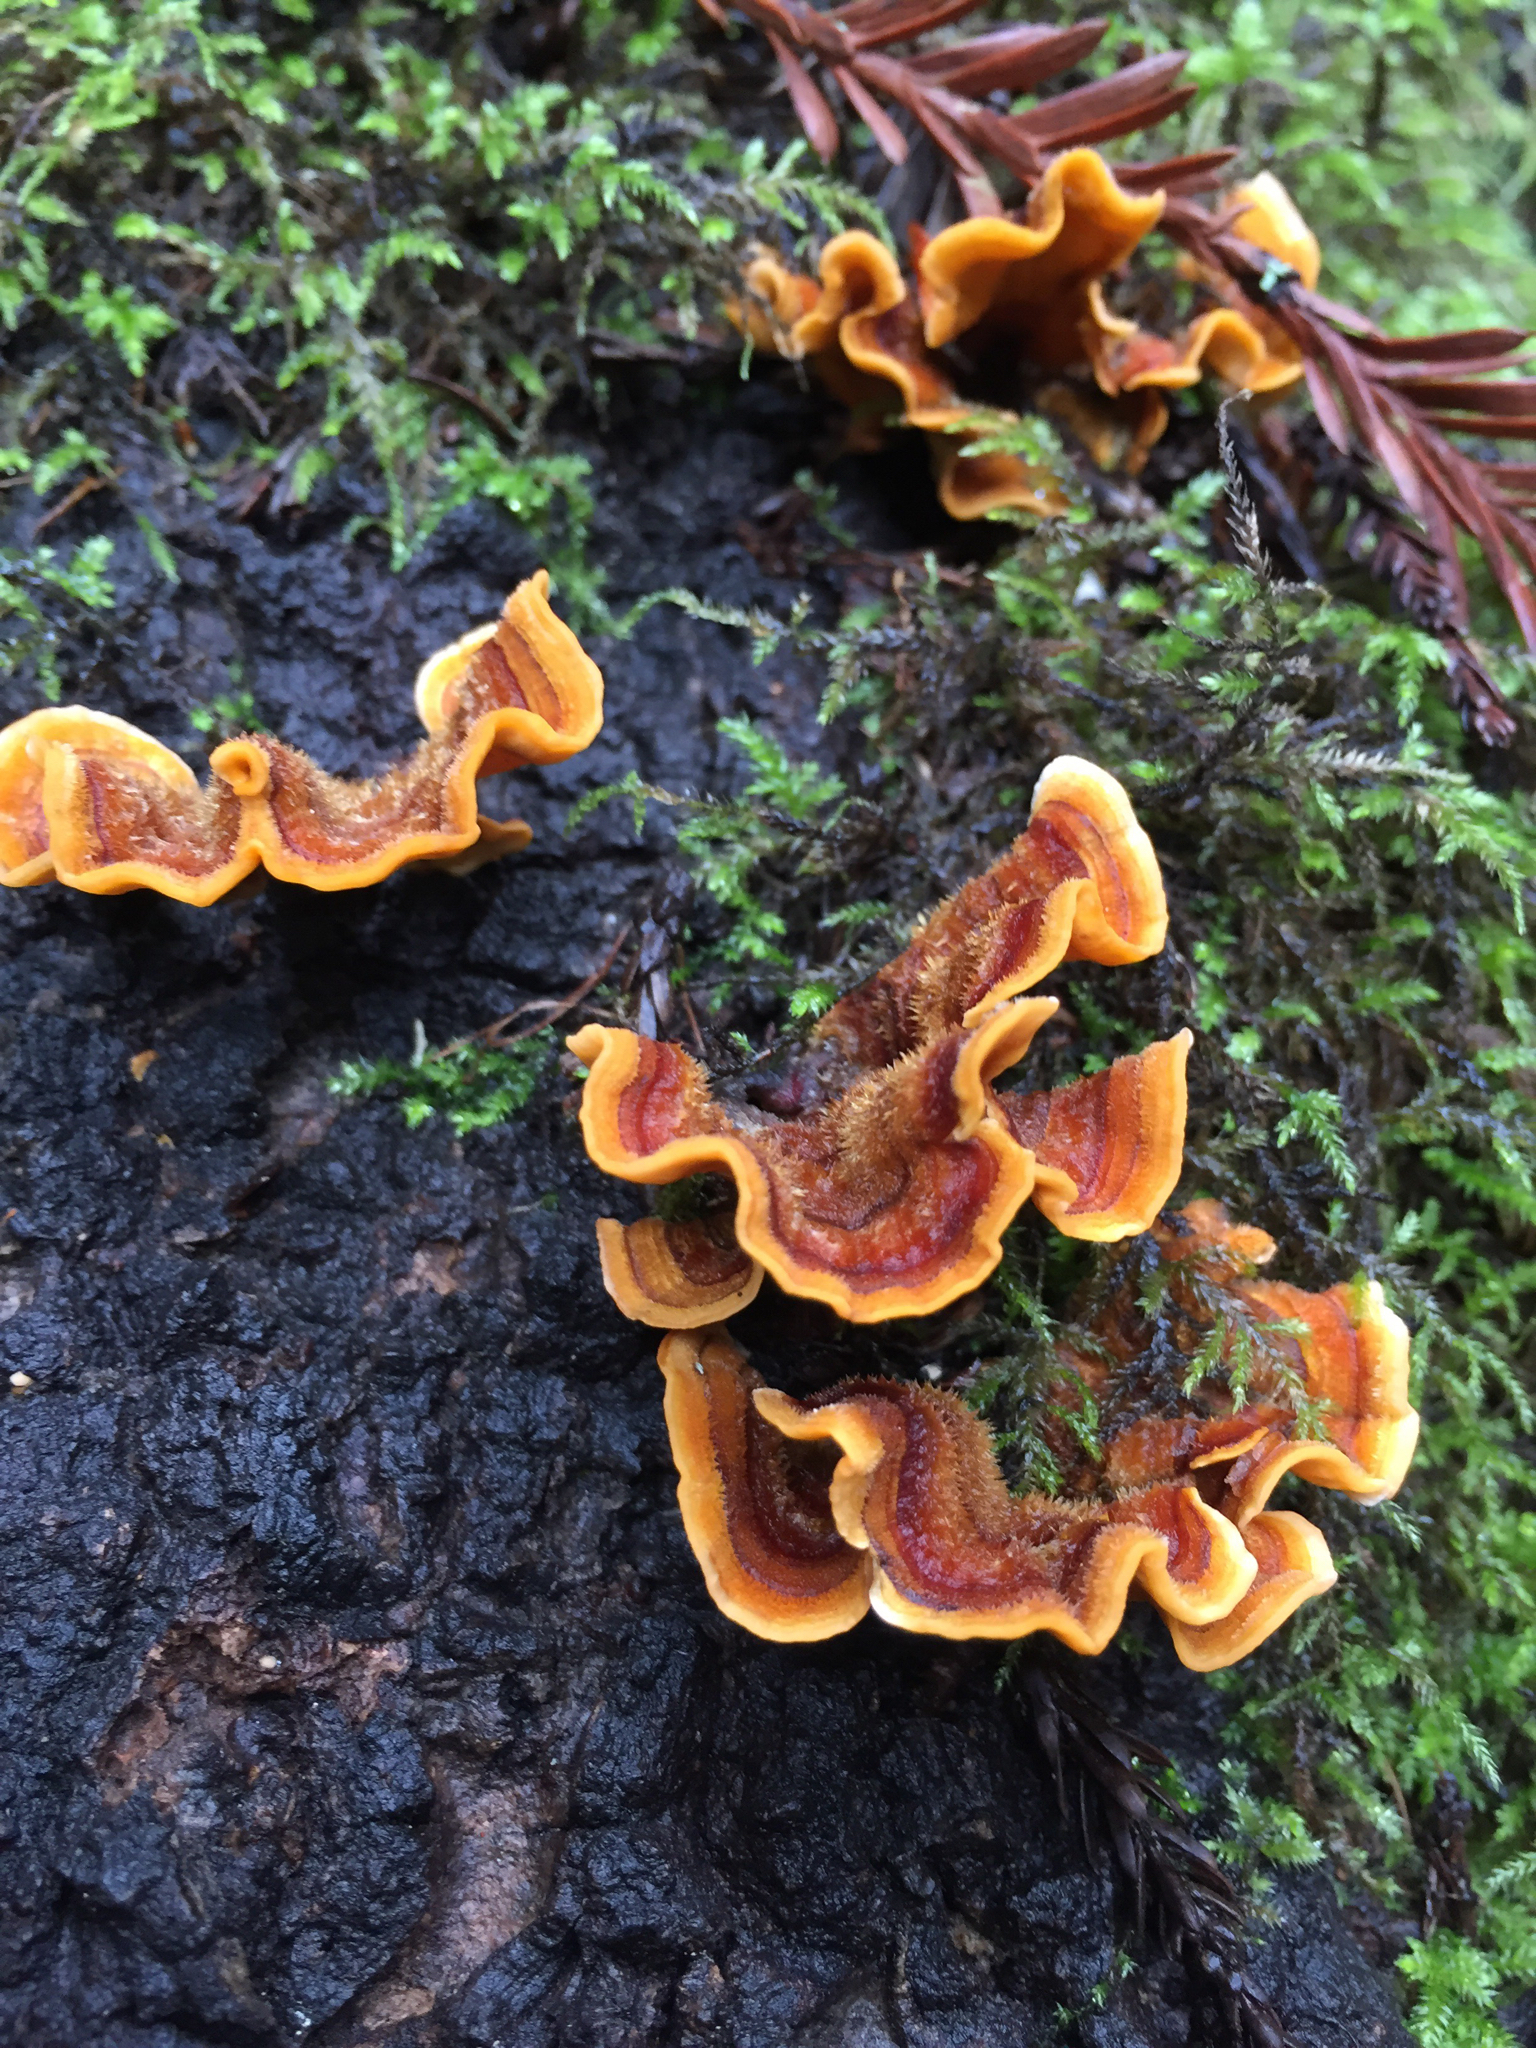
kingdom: Fungi
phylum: Basidiomycota
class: Agaricomycetes
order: Russulales
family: Stereaceae
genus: Stereum
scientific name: Stereum hirsutum
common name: Hairy curtain crust
